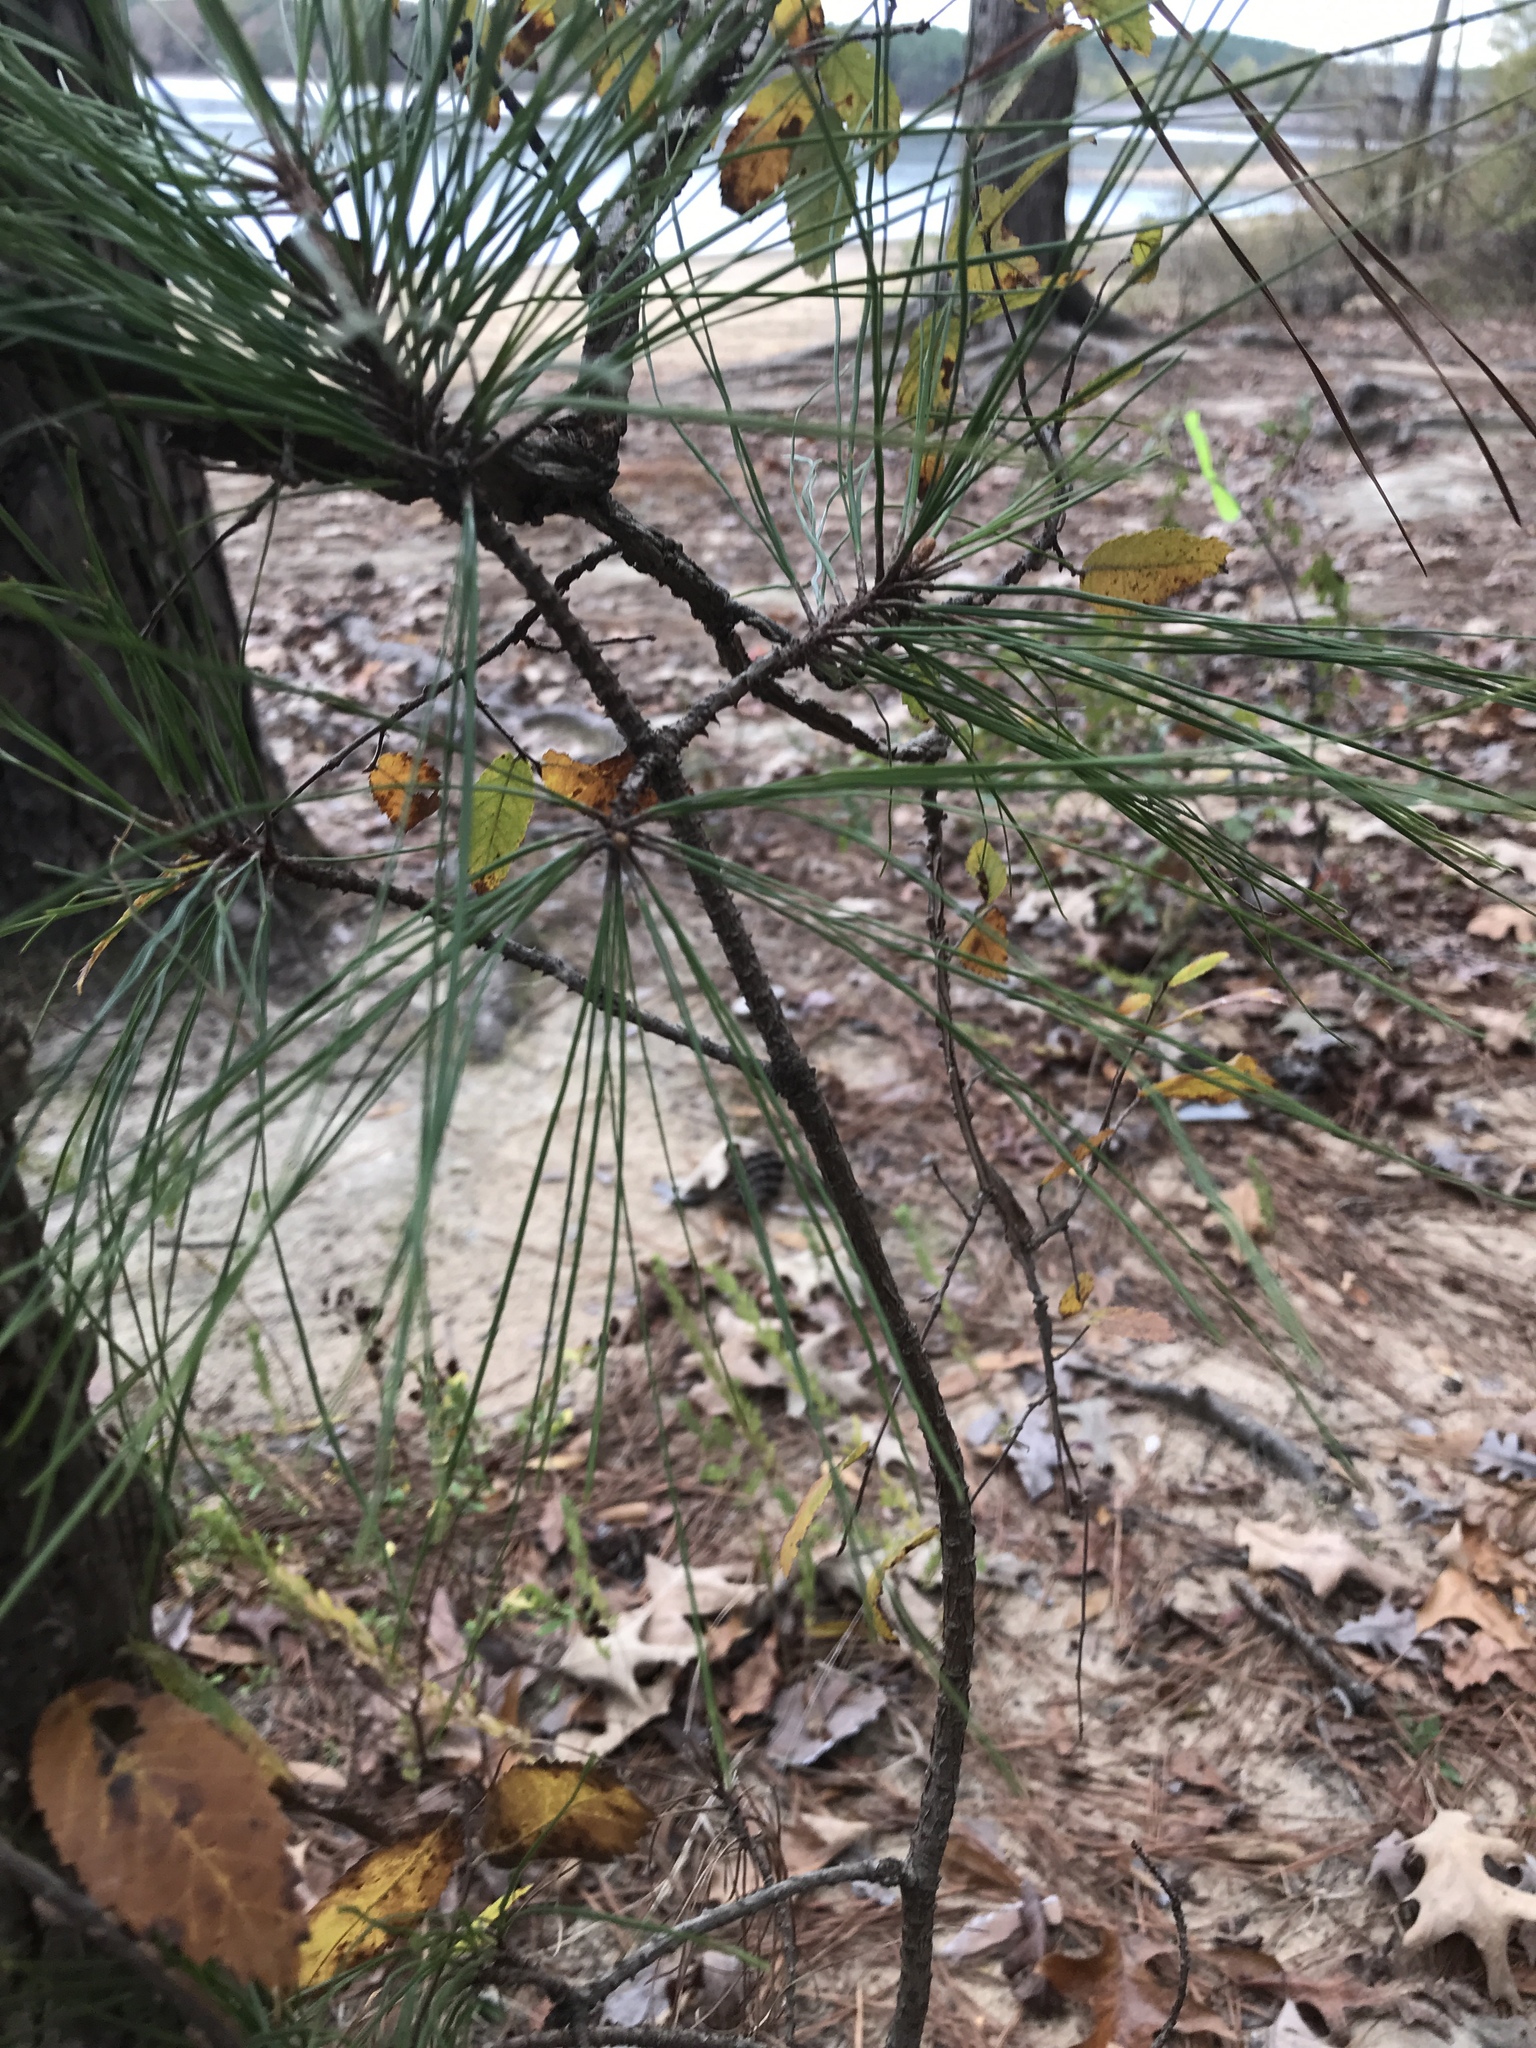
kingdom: Plantae
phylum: Tracheophyta
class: Pinopsida
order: Pinales
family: Pinaceae
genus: Pinus
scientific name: Pinus strobus
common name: Weymouth pine
